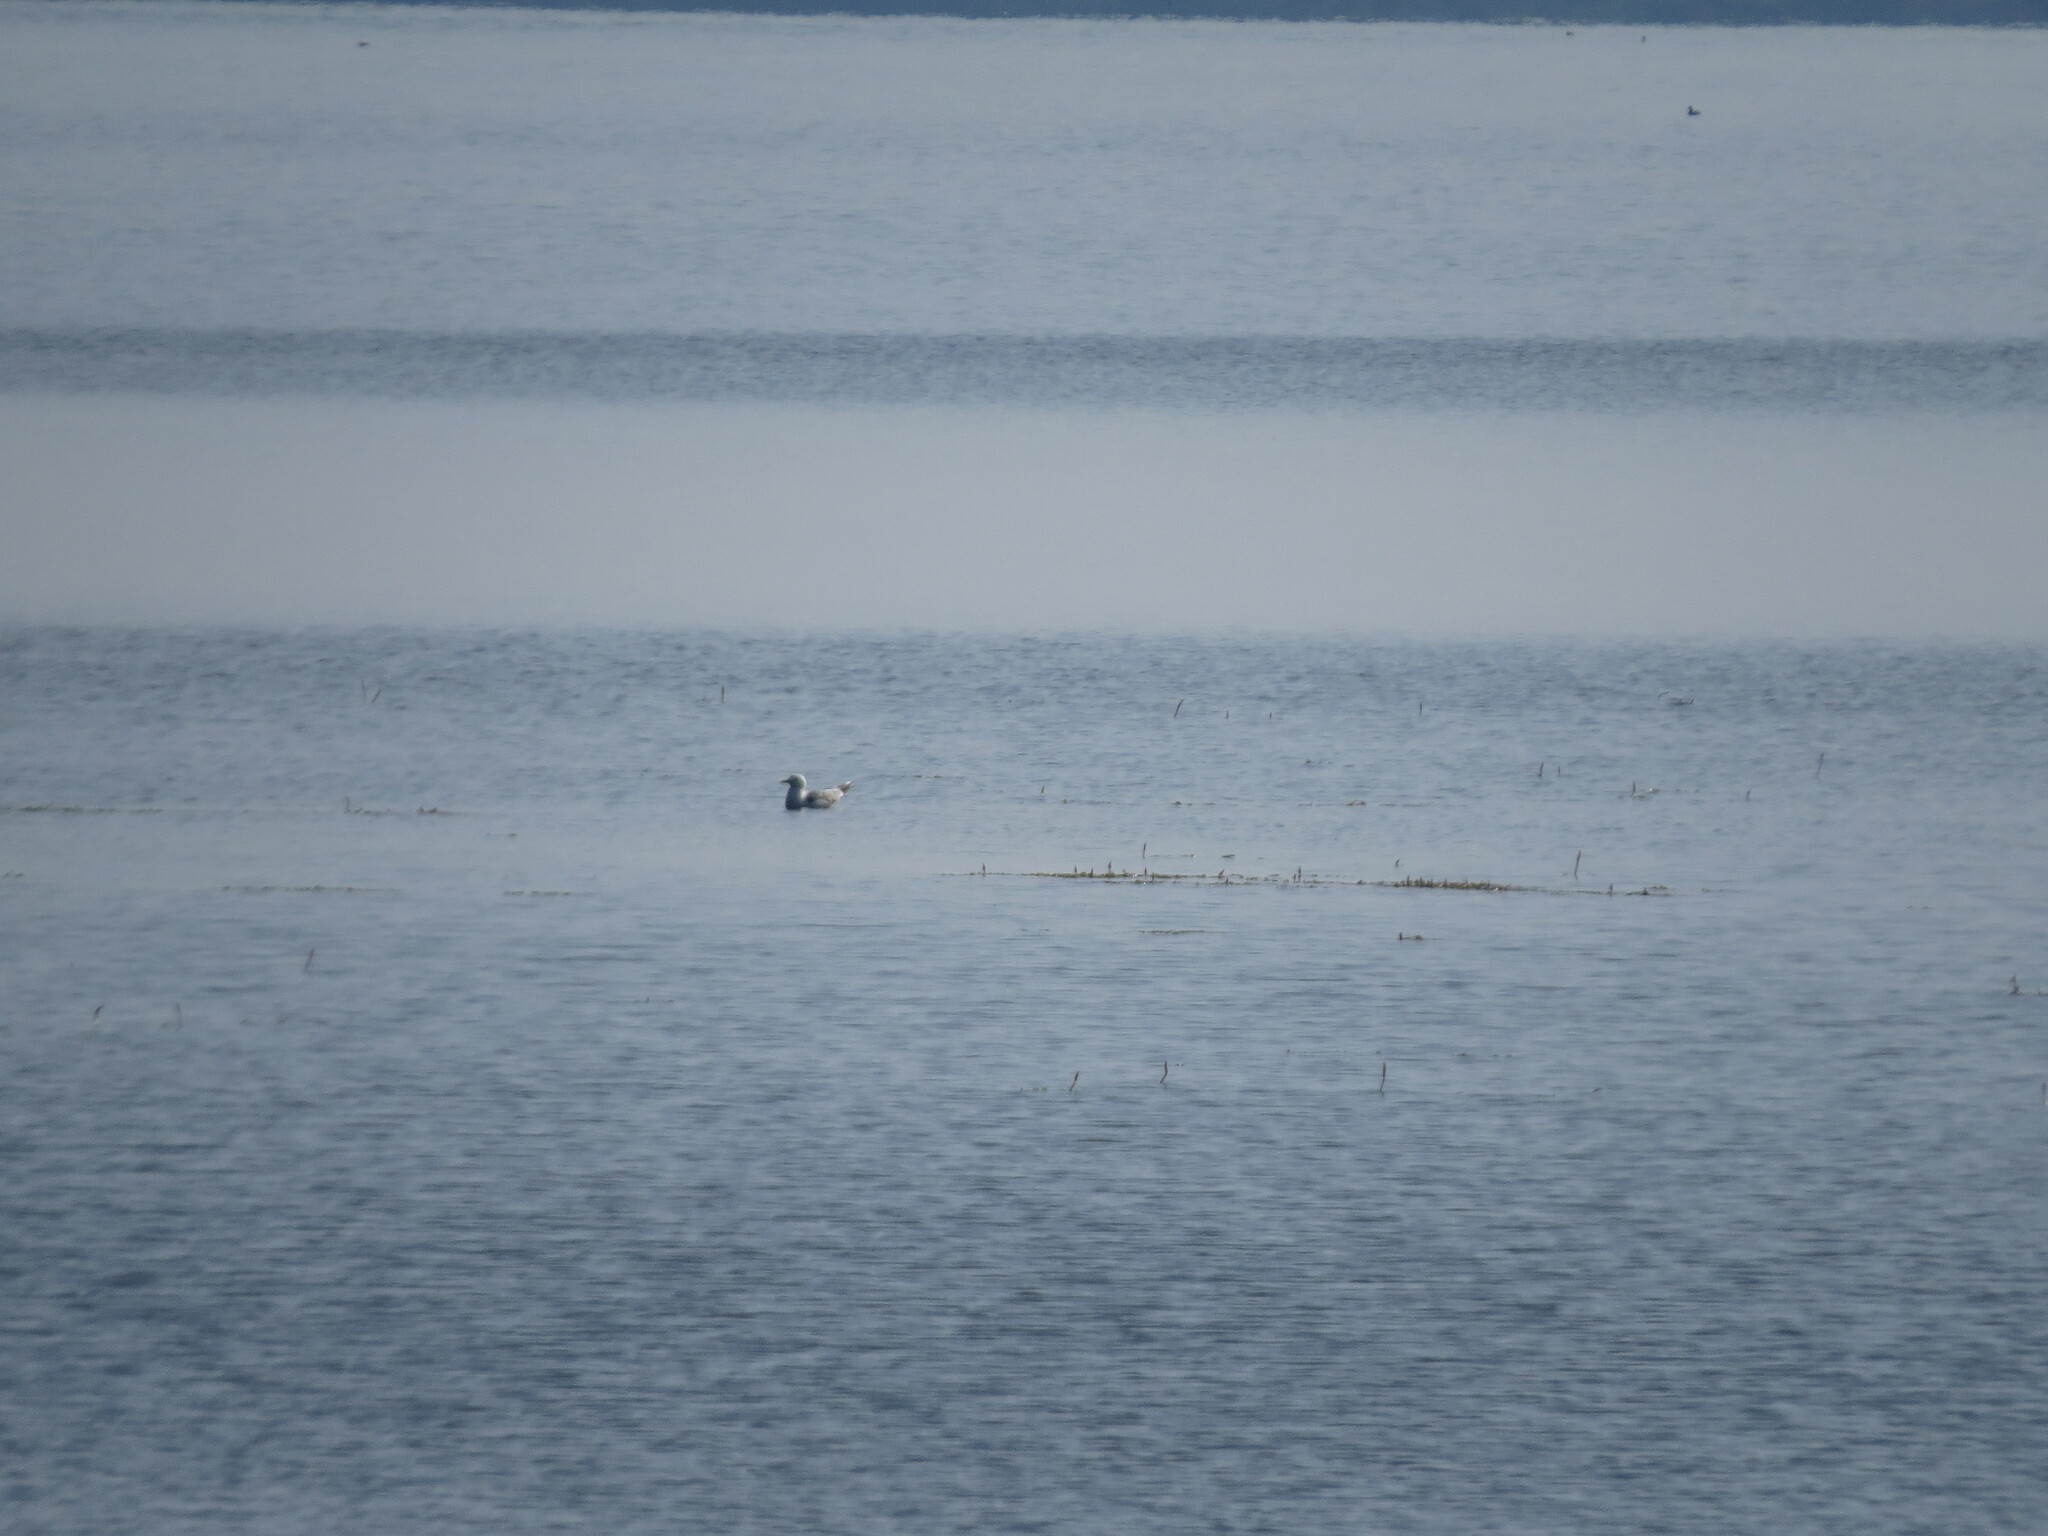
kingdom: Animalia
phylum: Chordata
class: Aves
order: Charadriiformes
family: Laridae
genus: Larus
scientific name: Larus canus
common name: Mew gull
